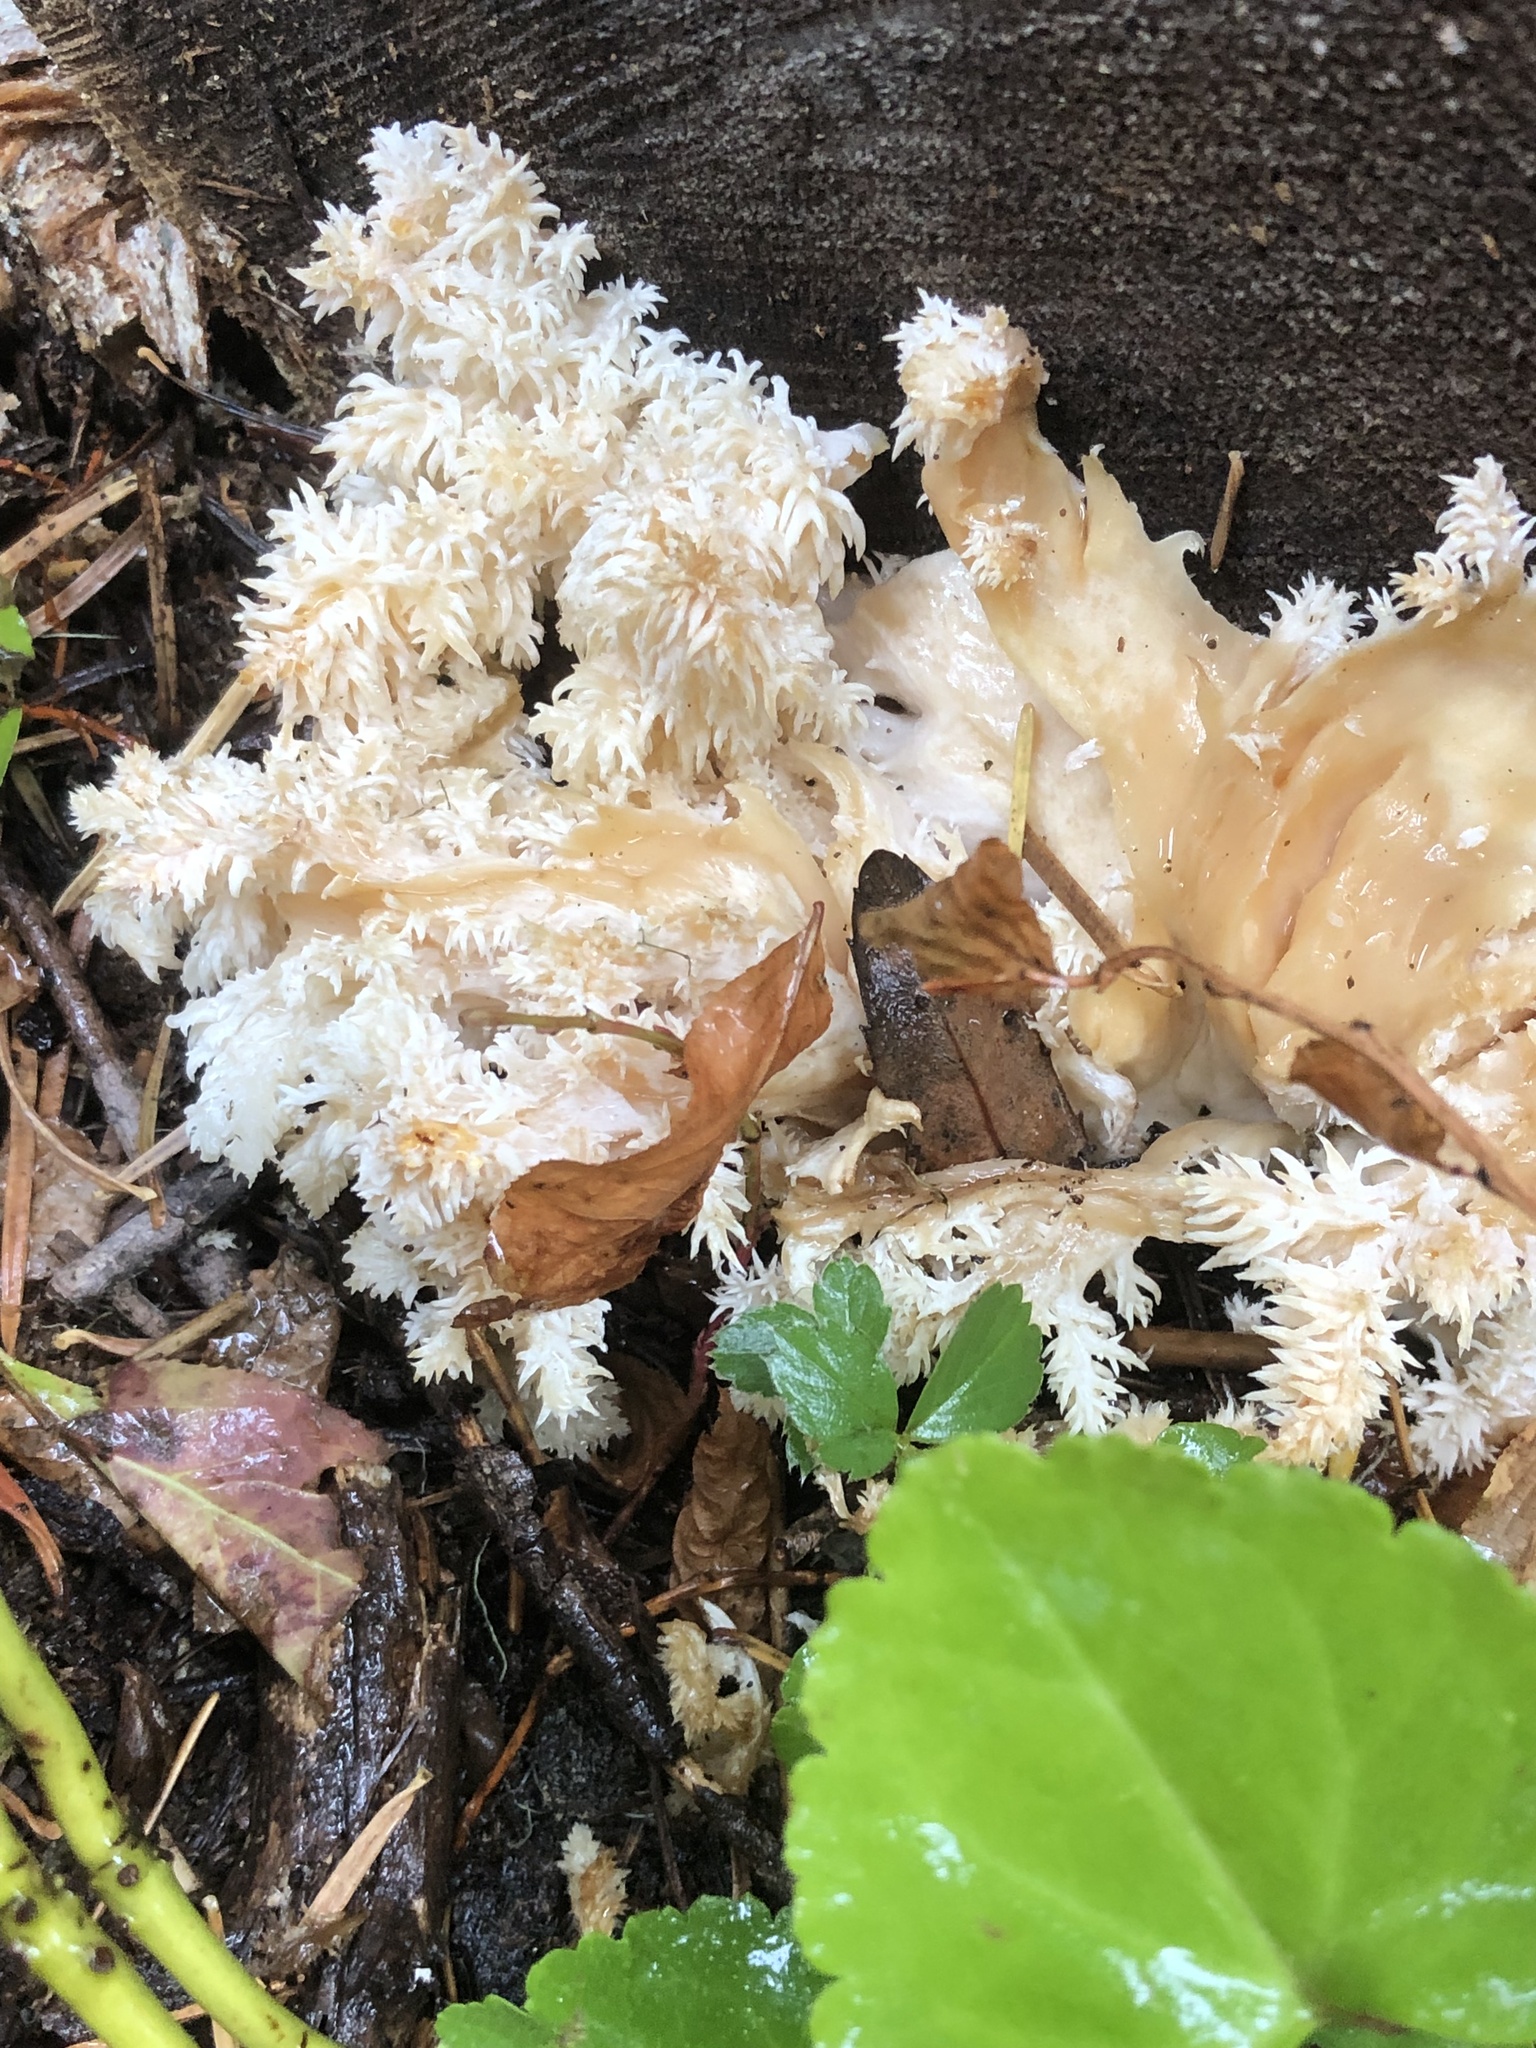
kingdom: Fungi
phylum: Basidiomycota
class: Agaricomycetes
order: Russulales
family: Hericiaceae
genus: Hericium
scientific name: Hericium coralloides
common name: Coral tooth
